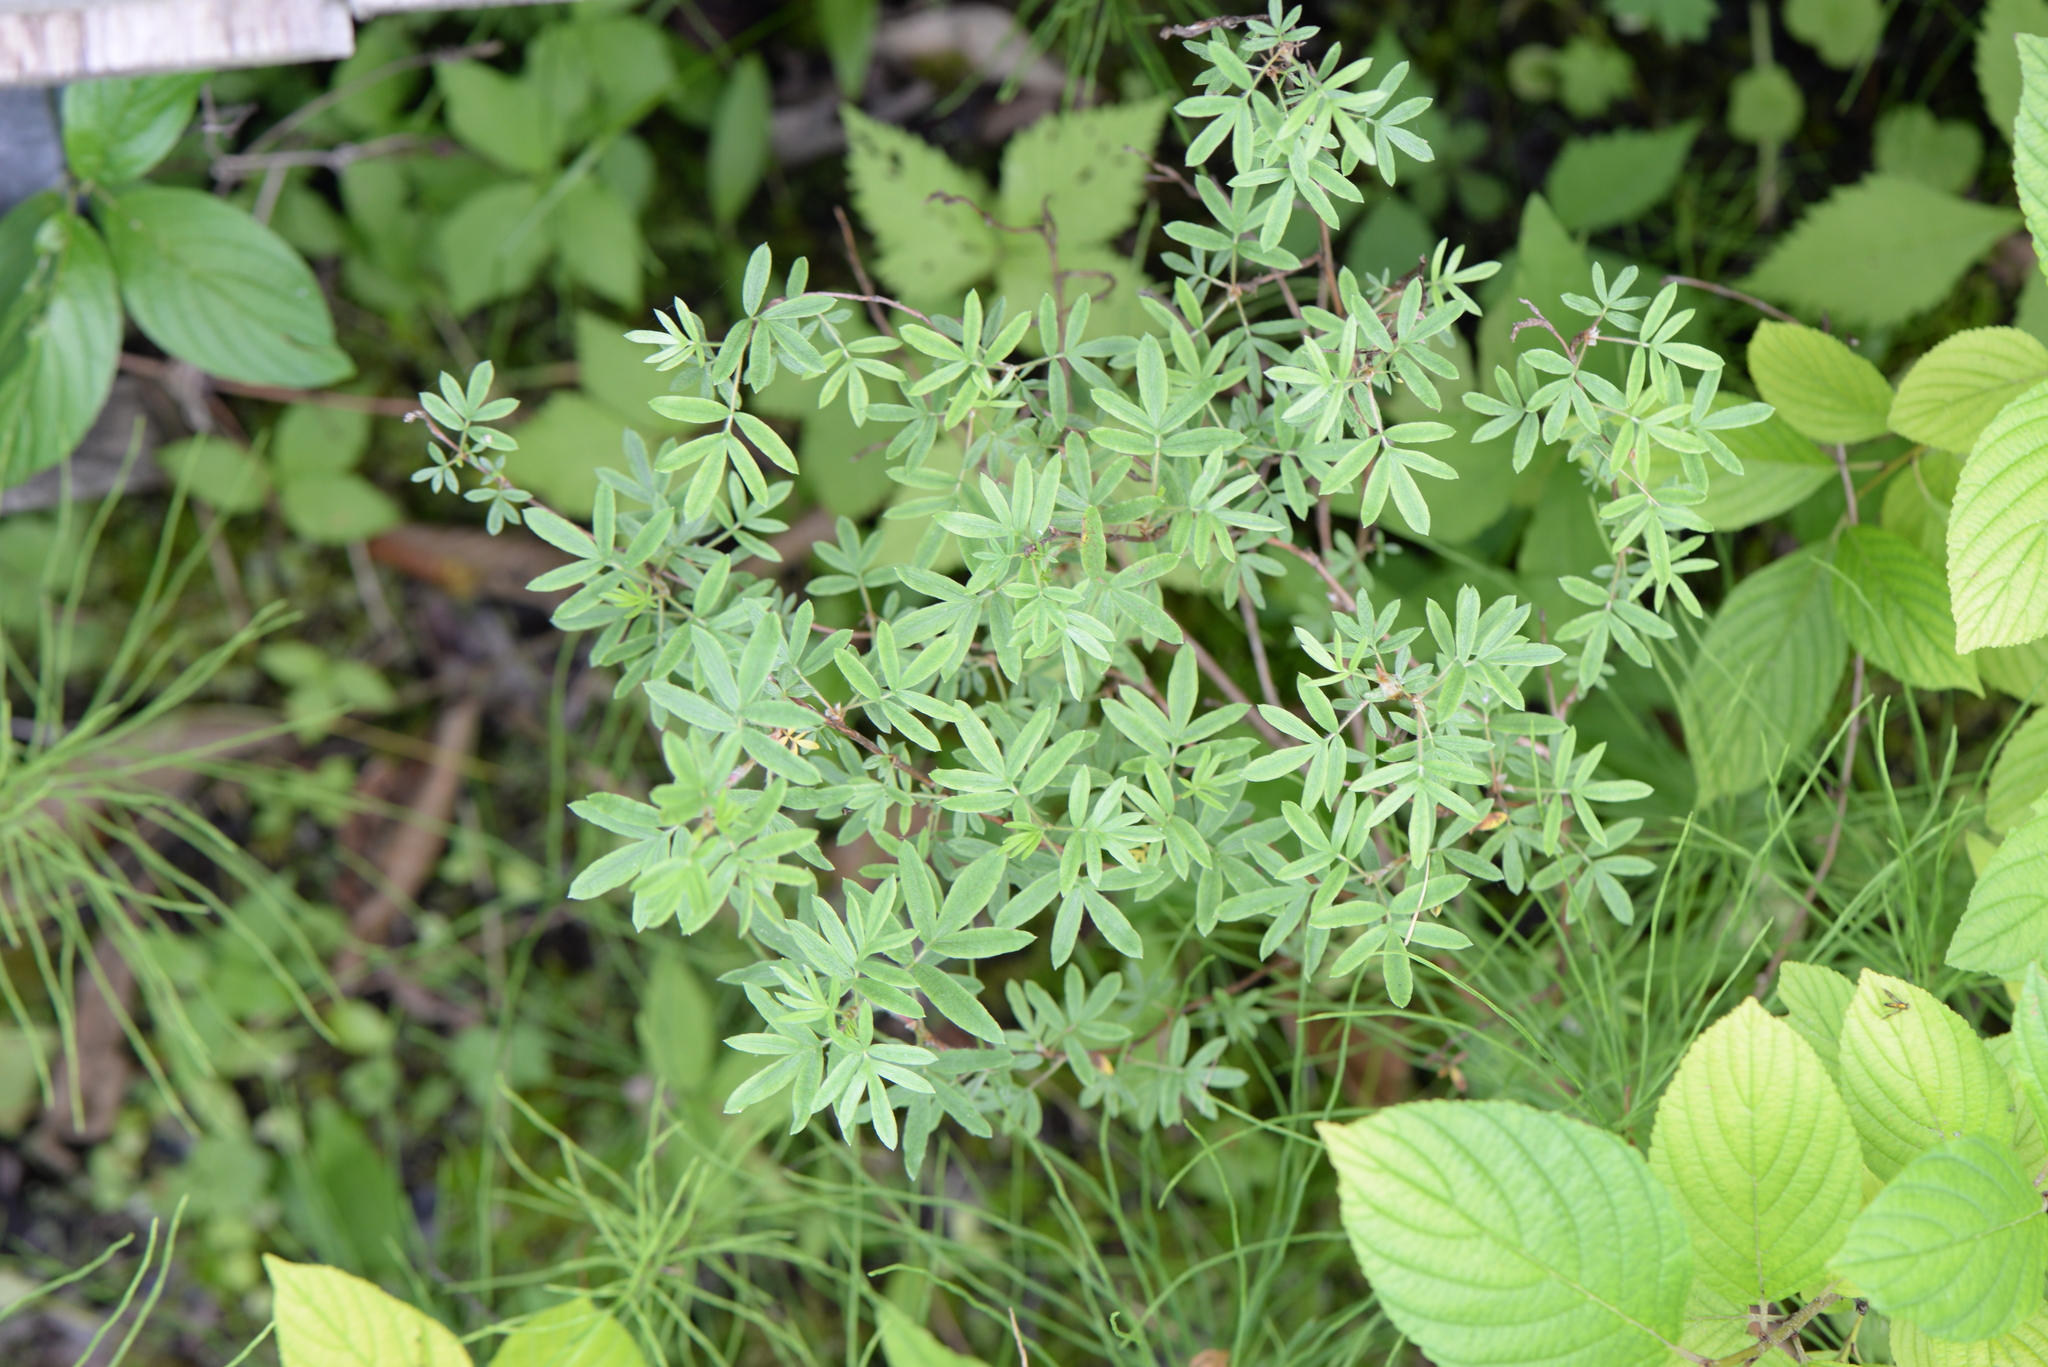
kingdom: Plantae
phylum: Tracheophyta
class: Magnoliopsida
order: Rosales
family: Rosaceae
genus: Dasiphora
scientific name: Dasiphora fruticosa
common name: Shrubby cinquefoil
